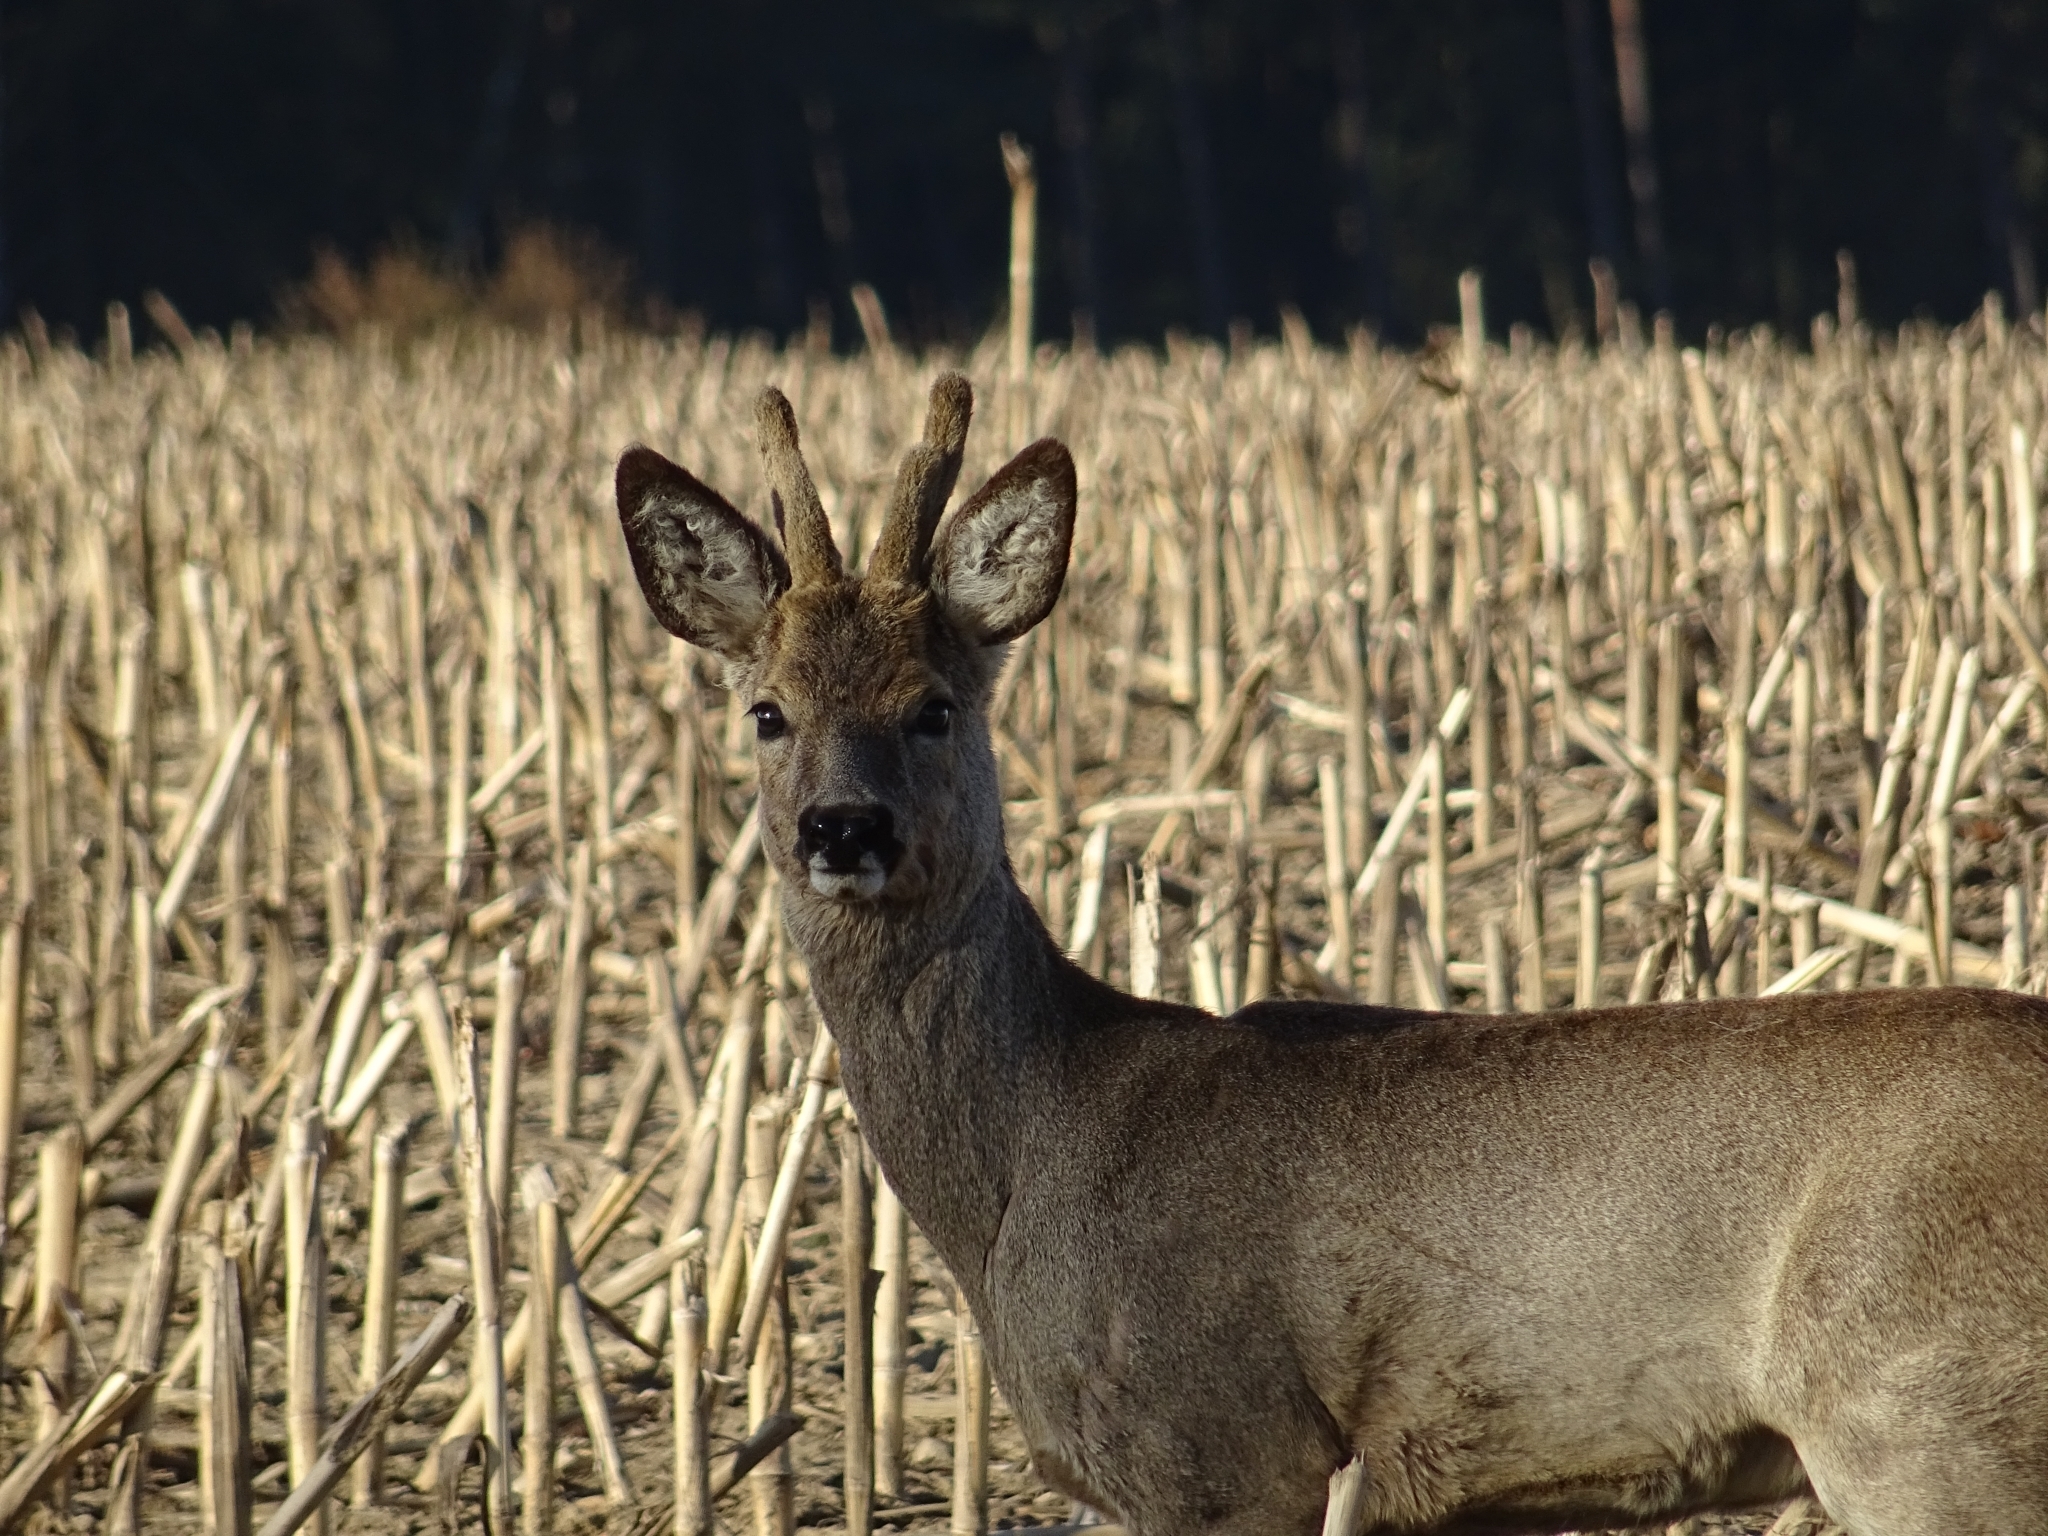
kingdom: Animalia
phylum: Chordata
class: Mammalia
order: Artiodactyla
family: Cervidae
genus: Capreolus
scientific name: Capreolus capreolus
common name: Western roe deer
